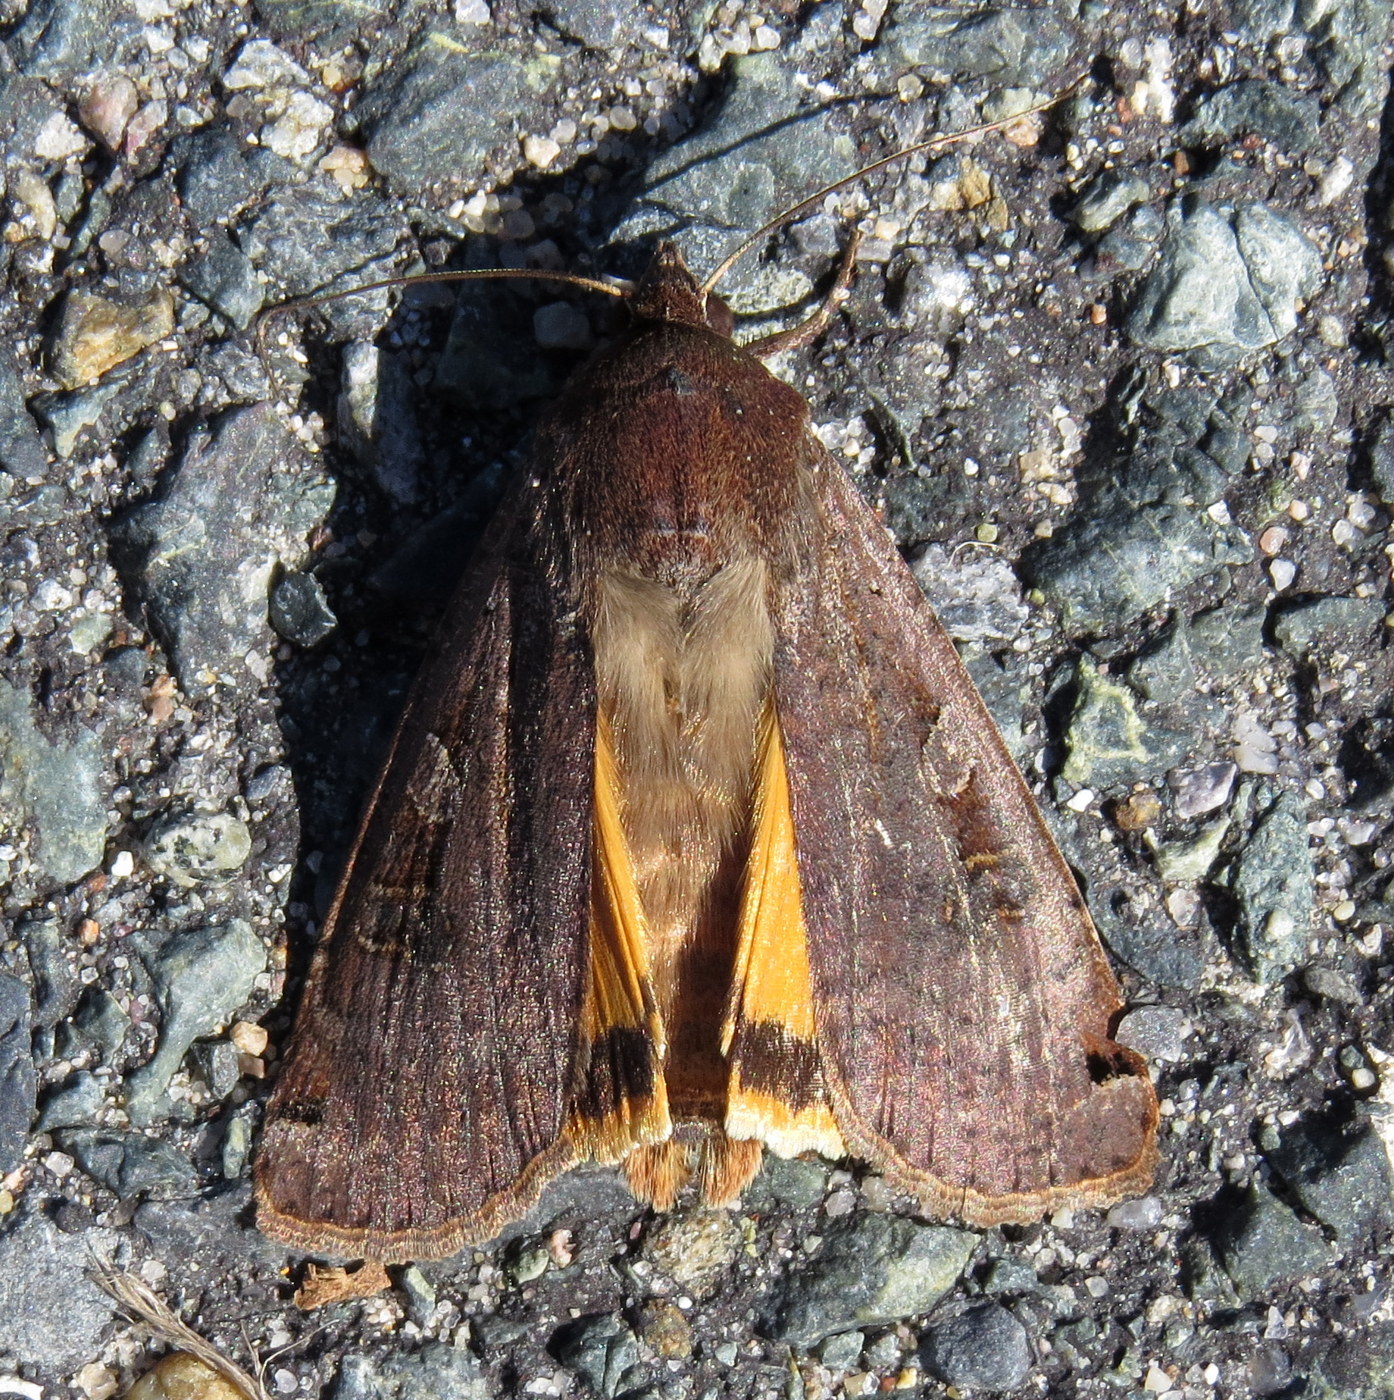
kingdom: Animalia
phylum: Arthropoda
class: Insecta
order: Lepidoptera
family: Noctuidae
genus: Noctua
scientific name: Noctua pronuba
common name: Large yellow underwing
